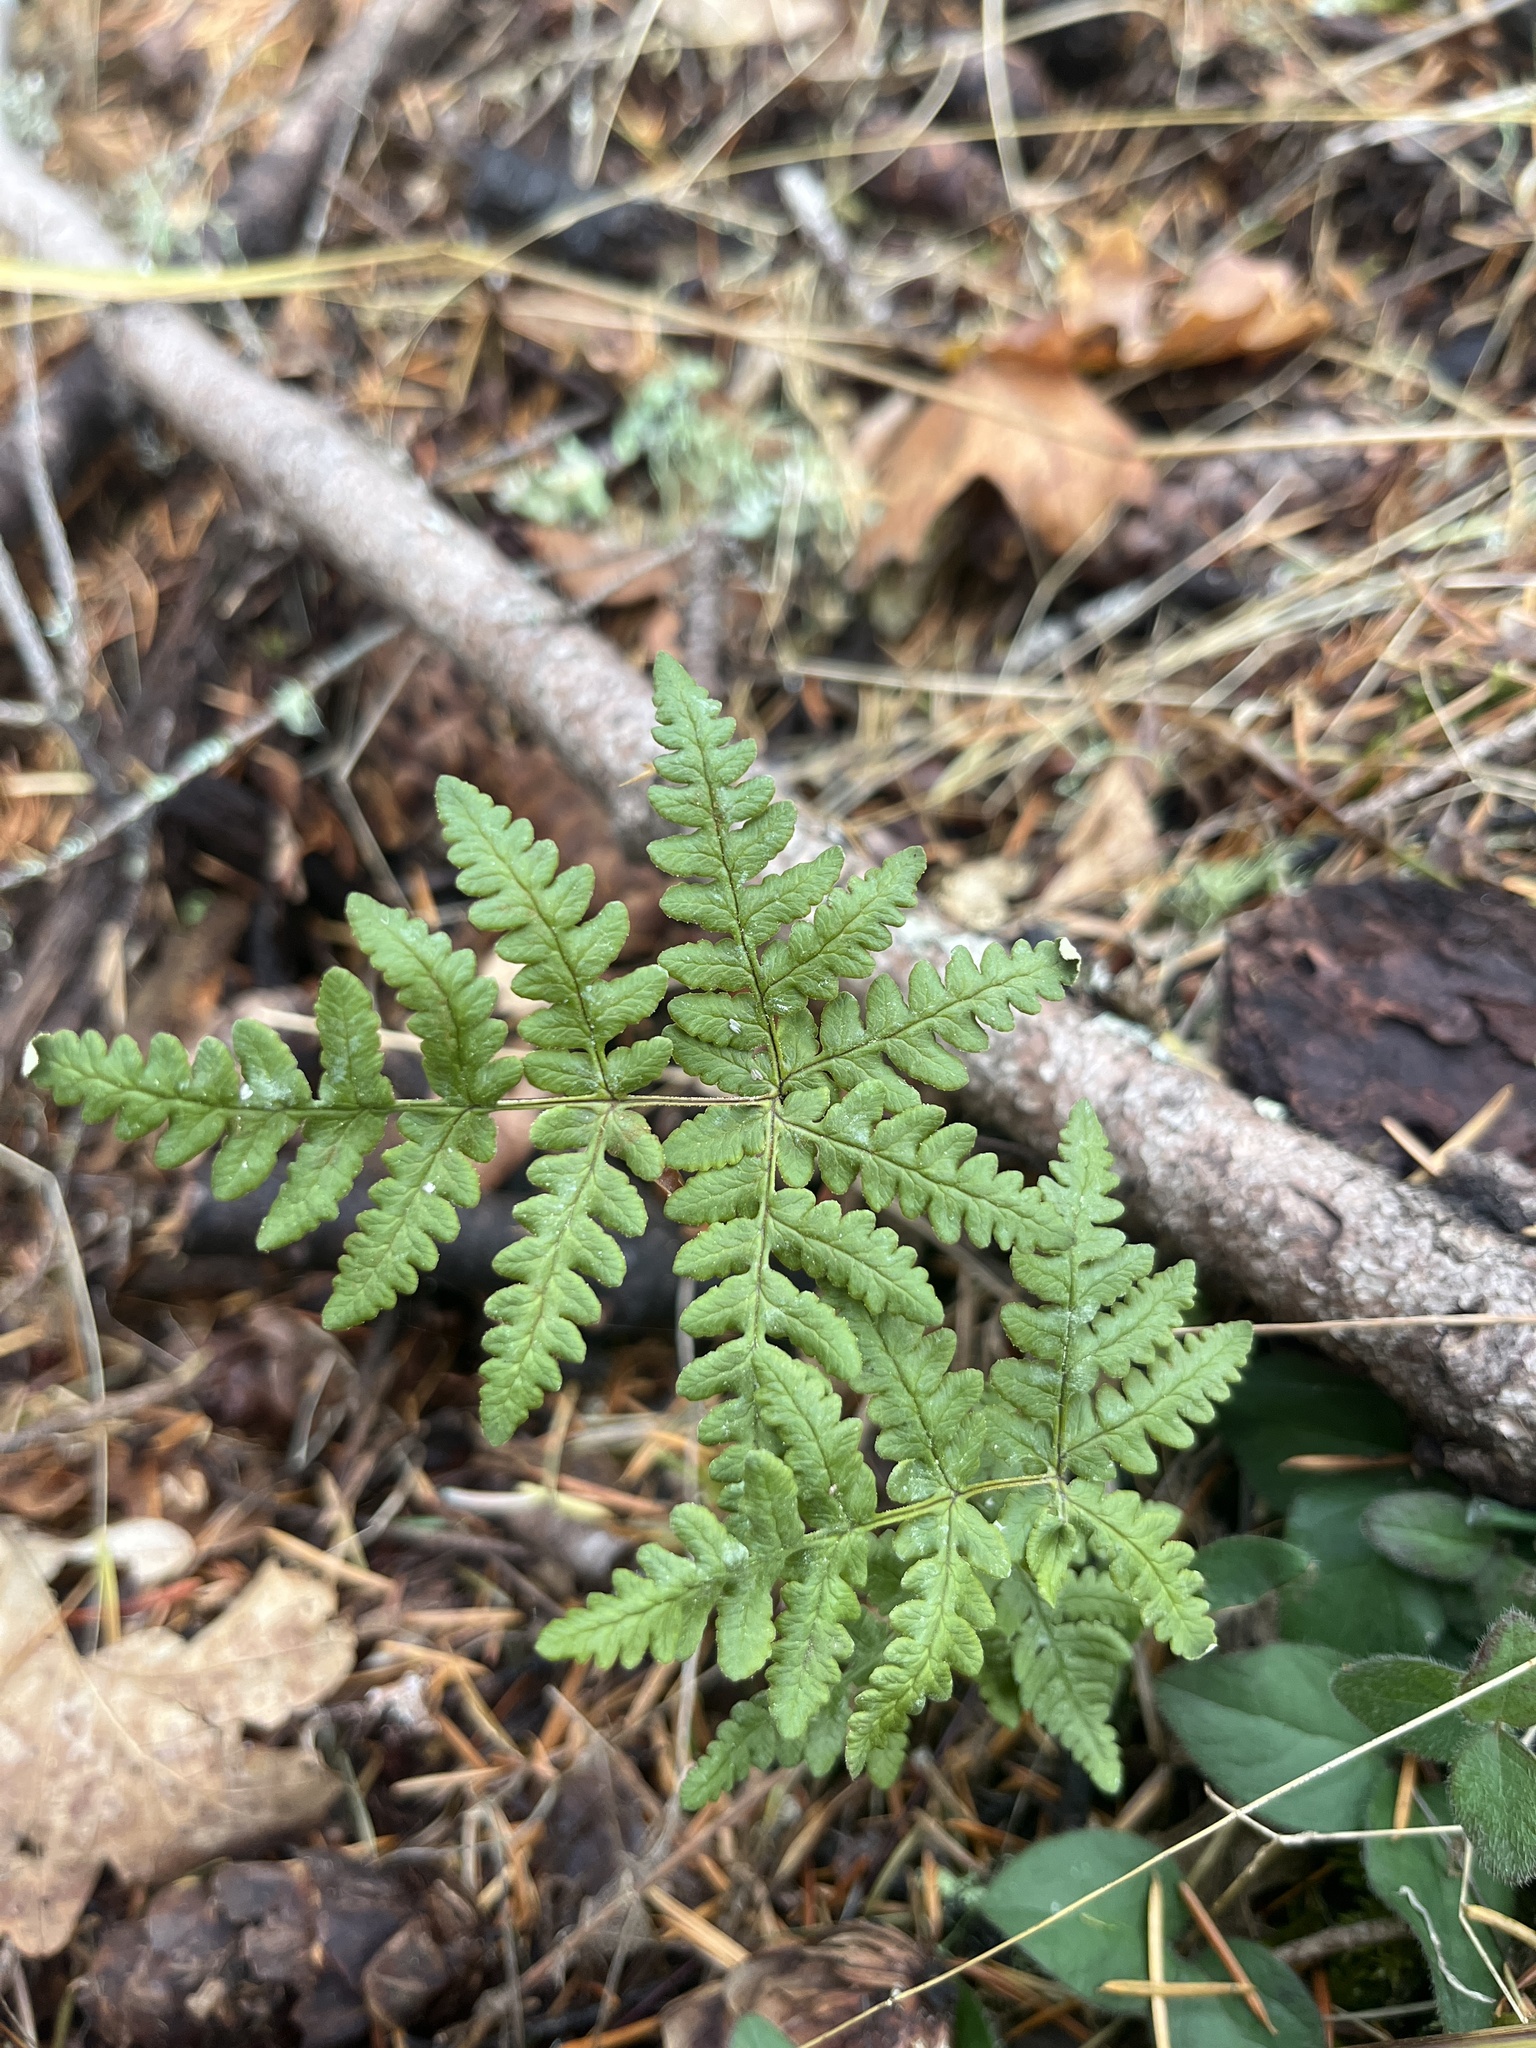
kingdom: Plantae
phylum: Tracheophyta
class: Polypodiopsida
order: Polypodiales
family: Pteridaceae
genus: Pentagramma
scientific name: Pentagramma triangularis
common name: Gold fern
